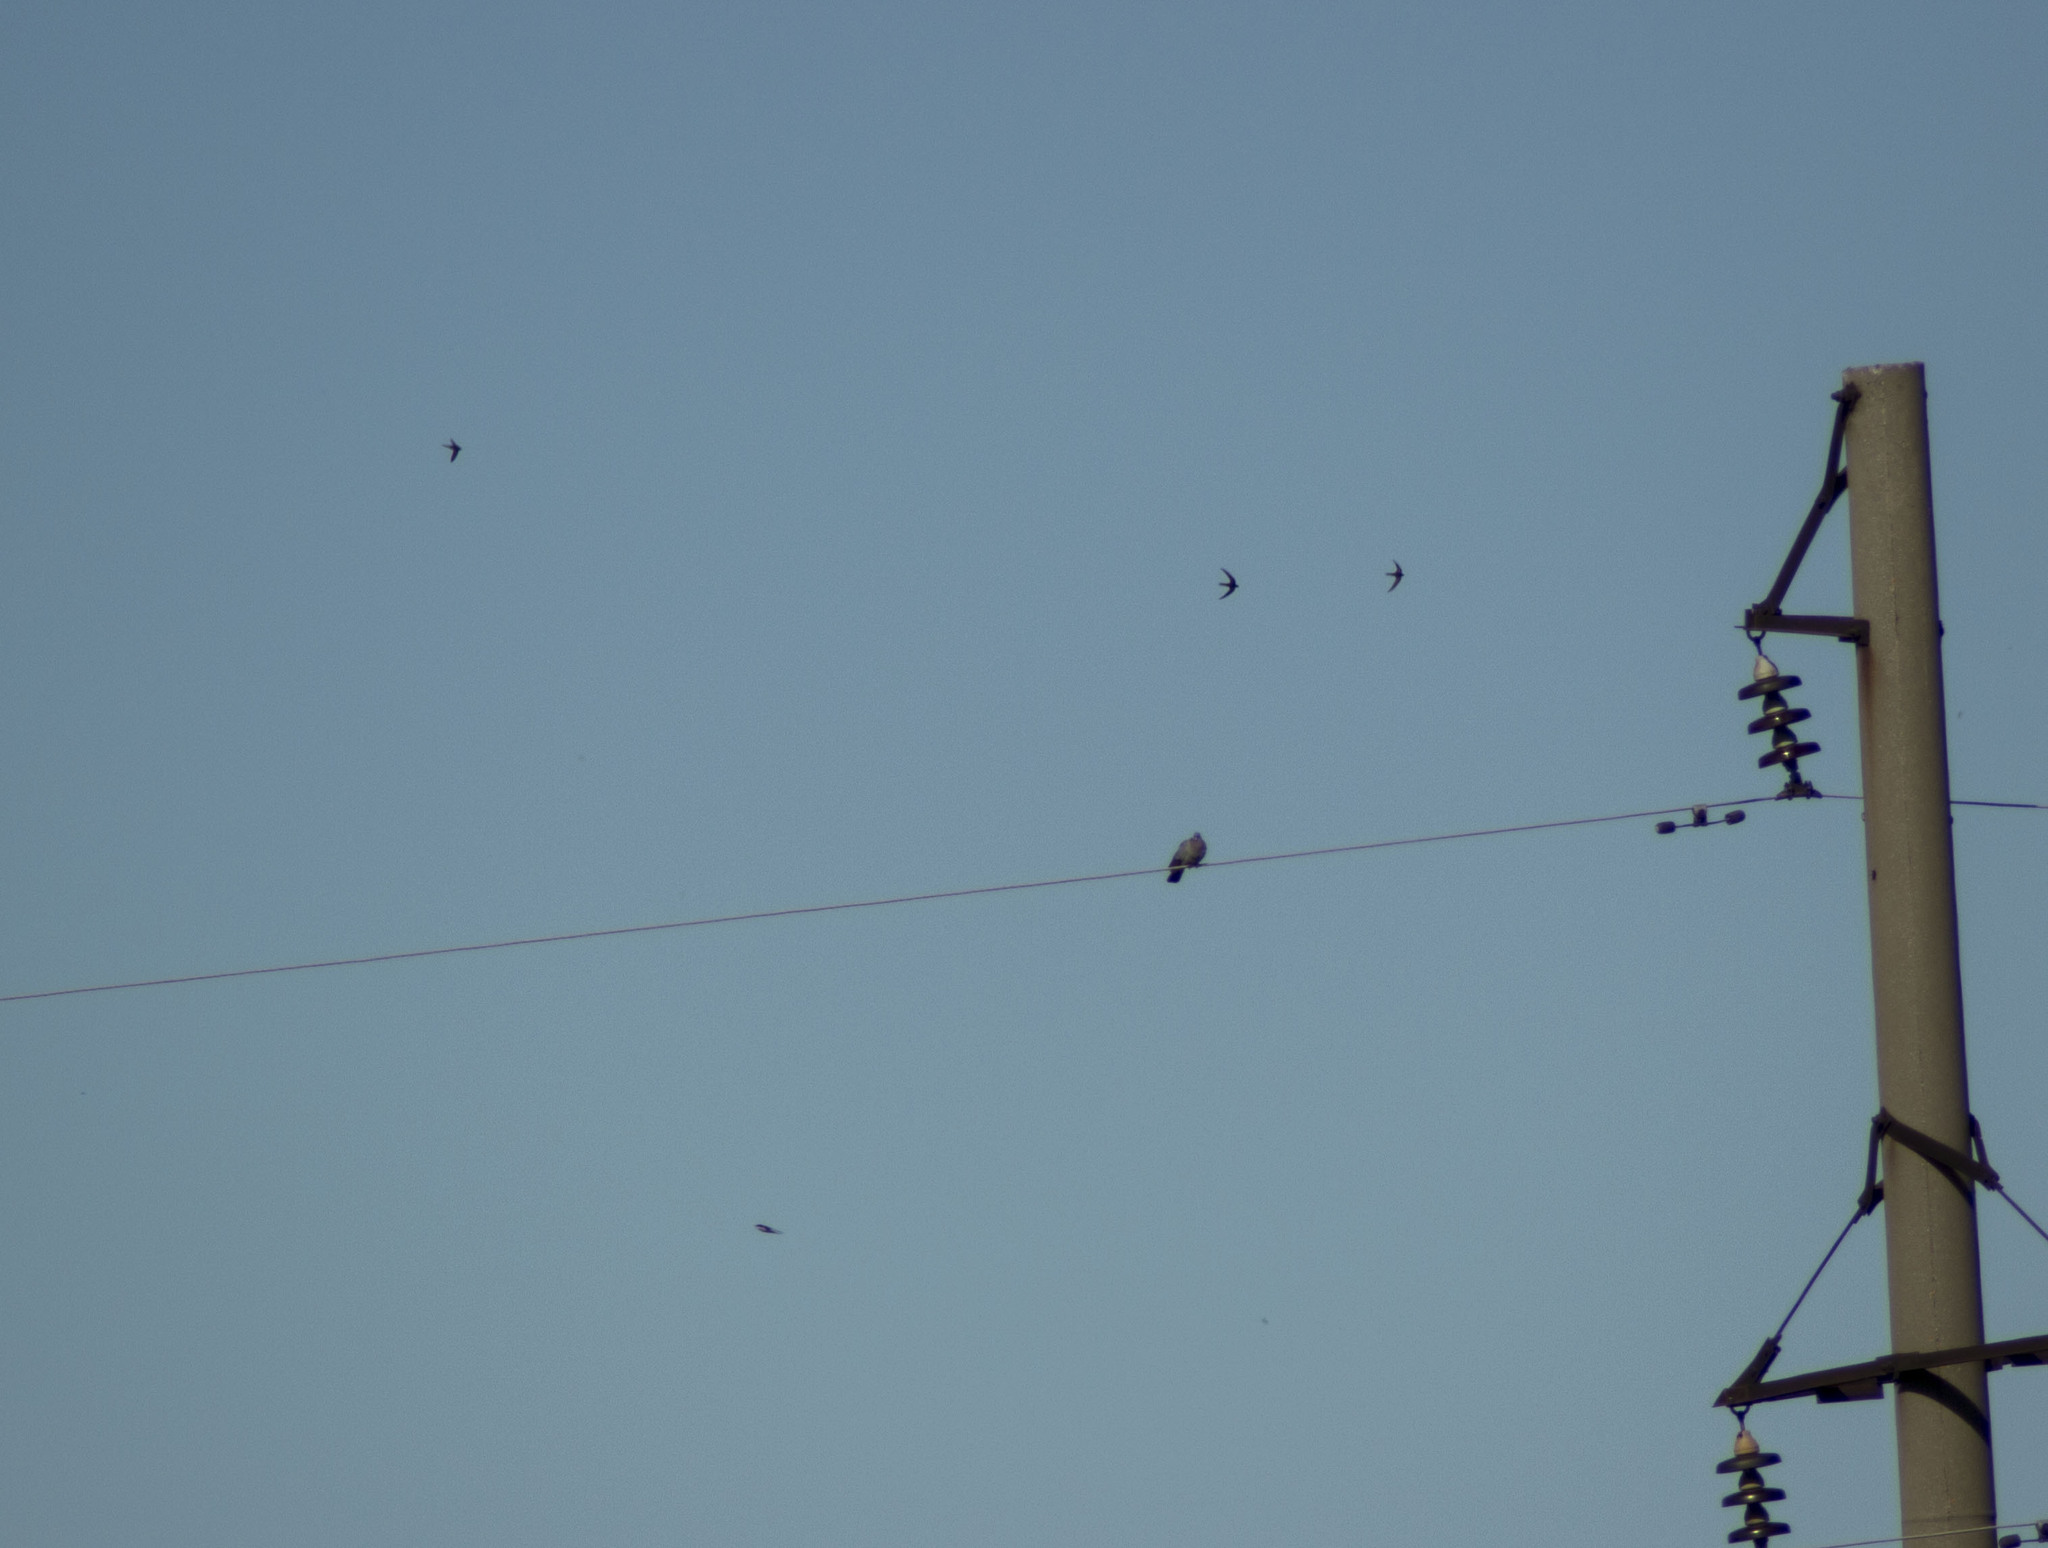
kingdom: Animalia
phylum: Chordata
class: Aves
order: Columbiformes
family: Columbidae
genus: Columba
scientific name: Columba oenas
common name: Stock dove
